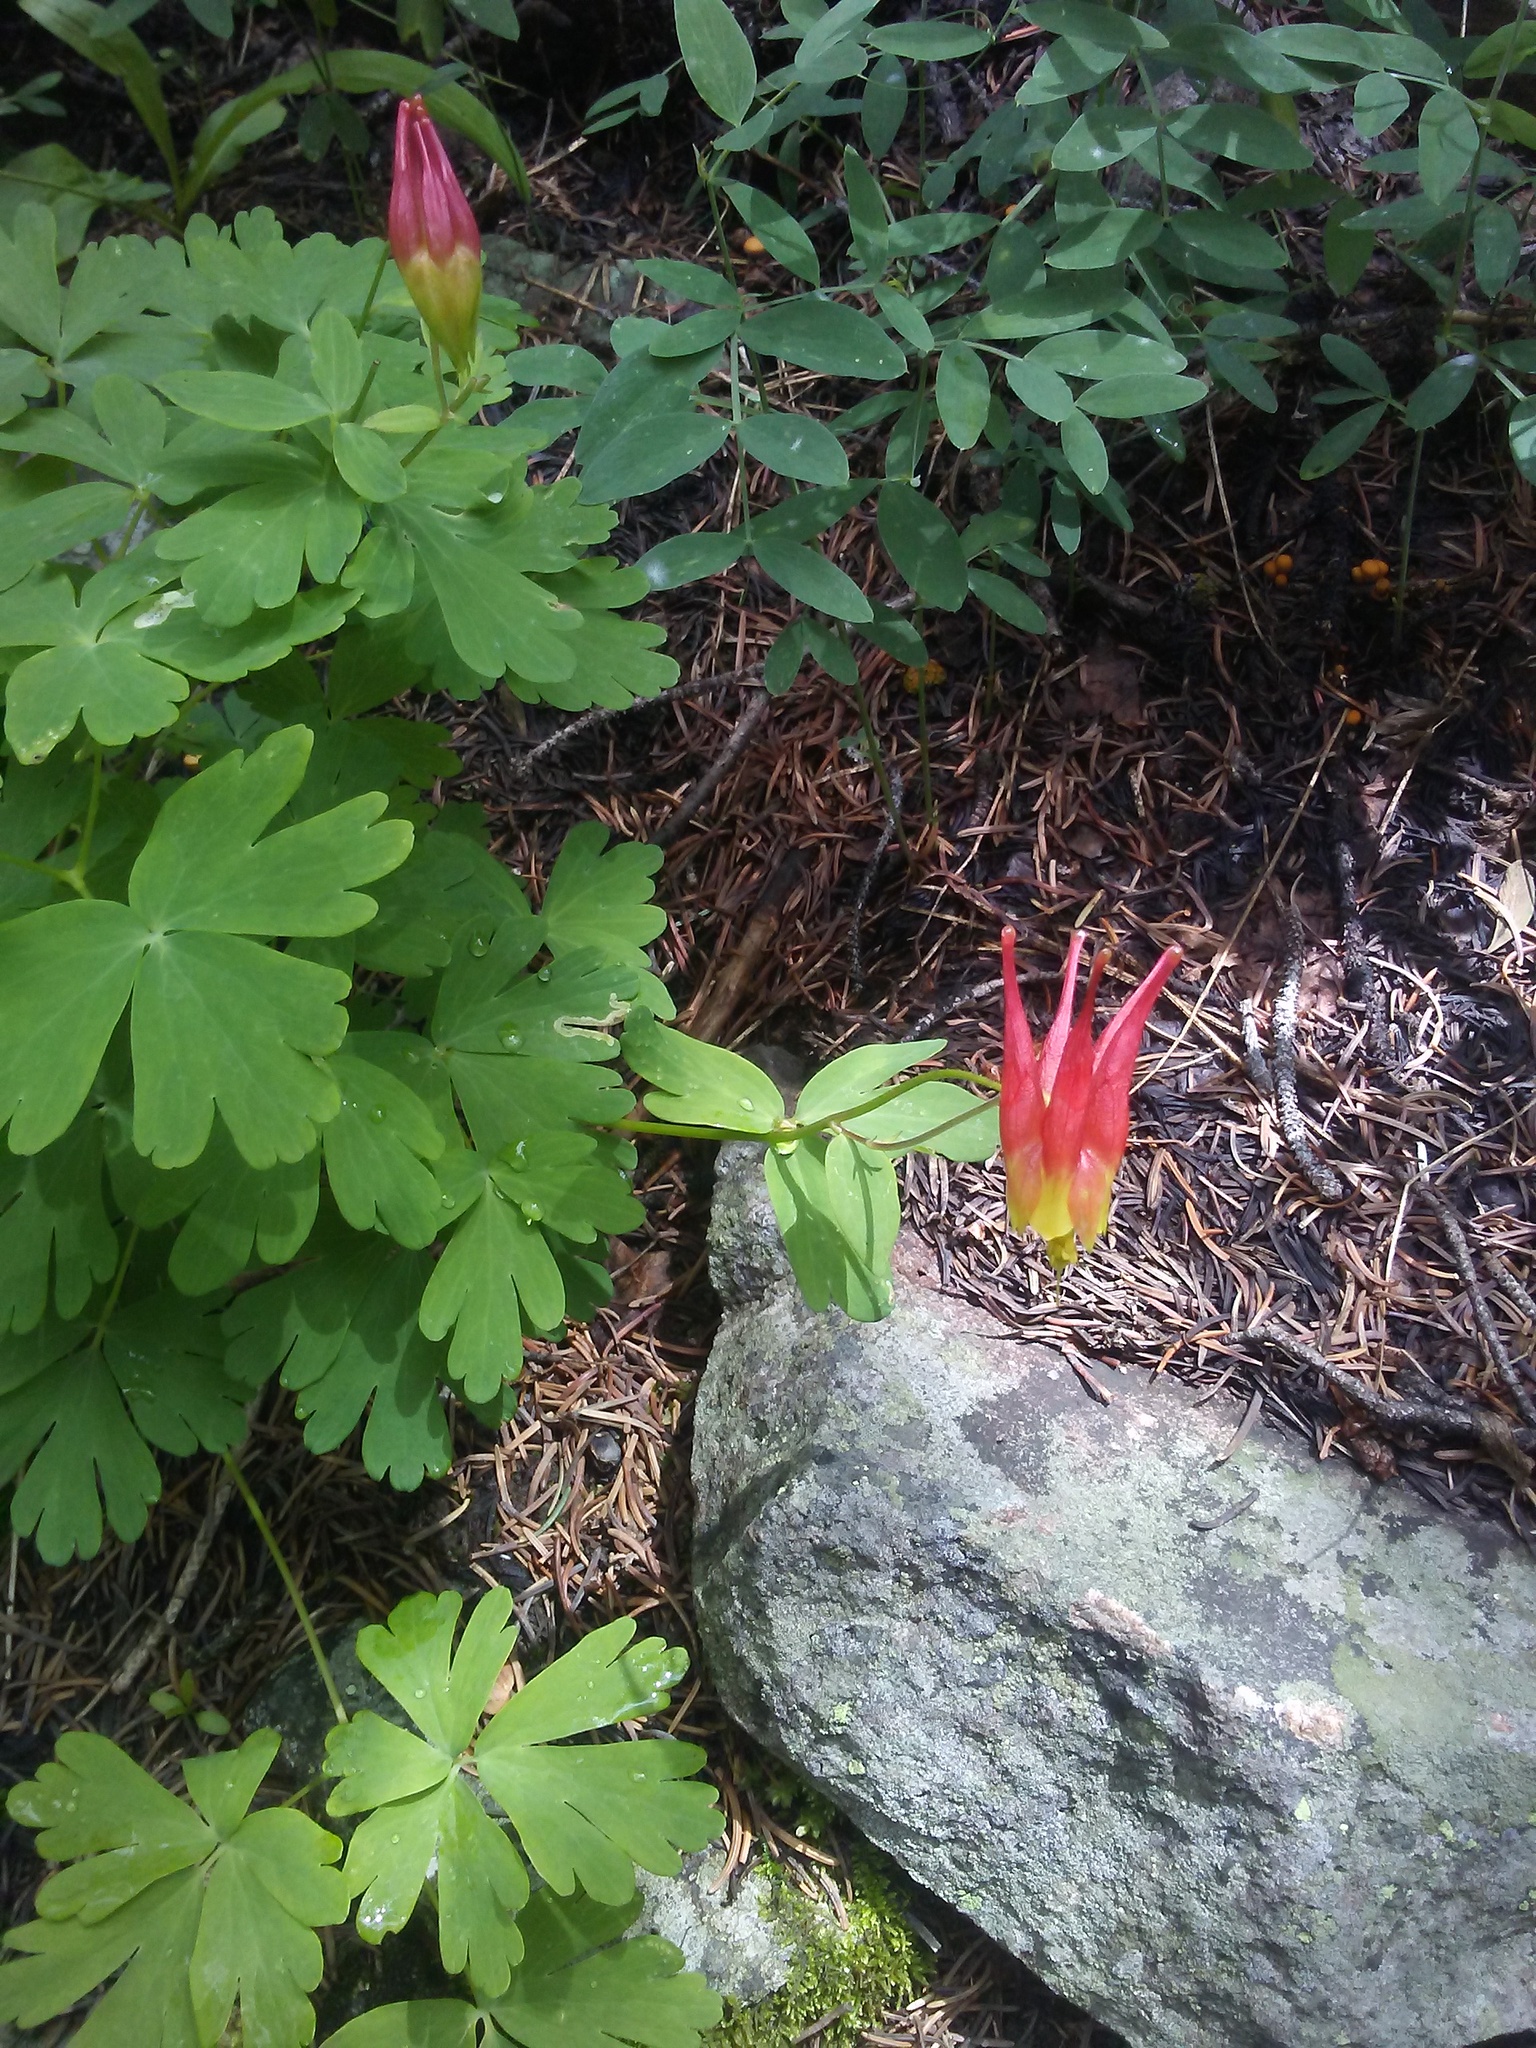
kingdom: Plantae
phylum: Tracheophyta
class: Magnoliopsida
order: Ranunculales
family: Ranunculaceae
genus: Aquilegia
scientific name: Aquilegia elegantula
